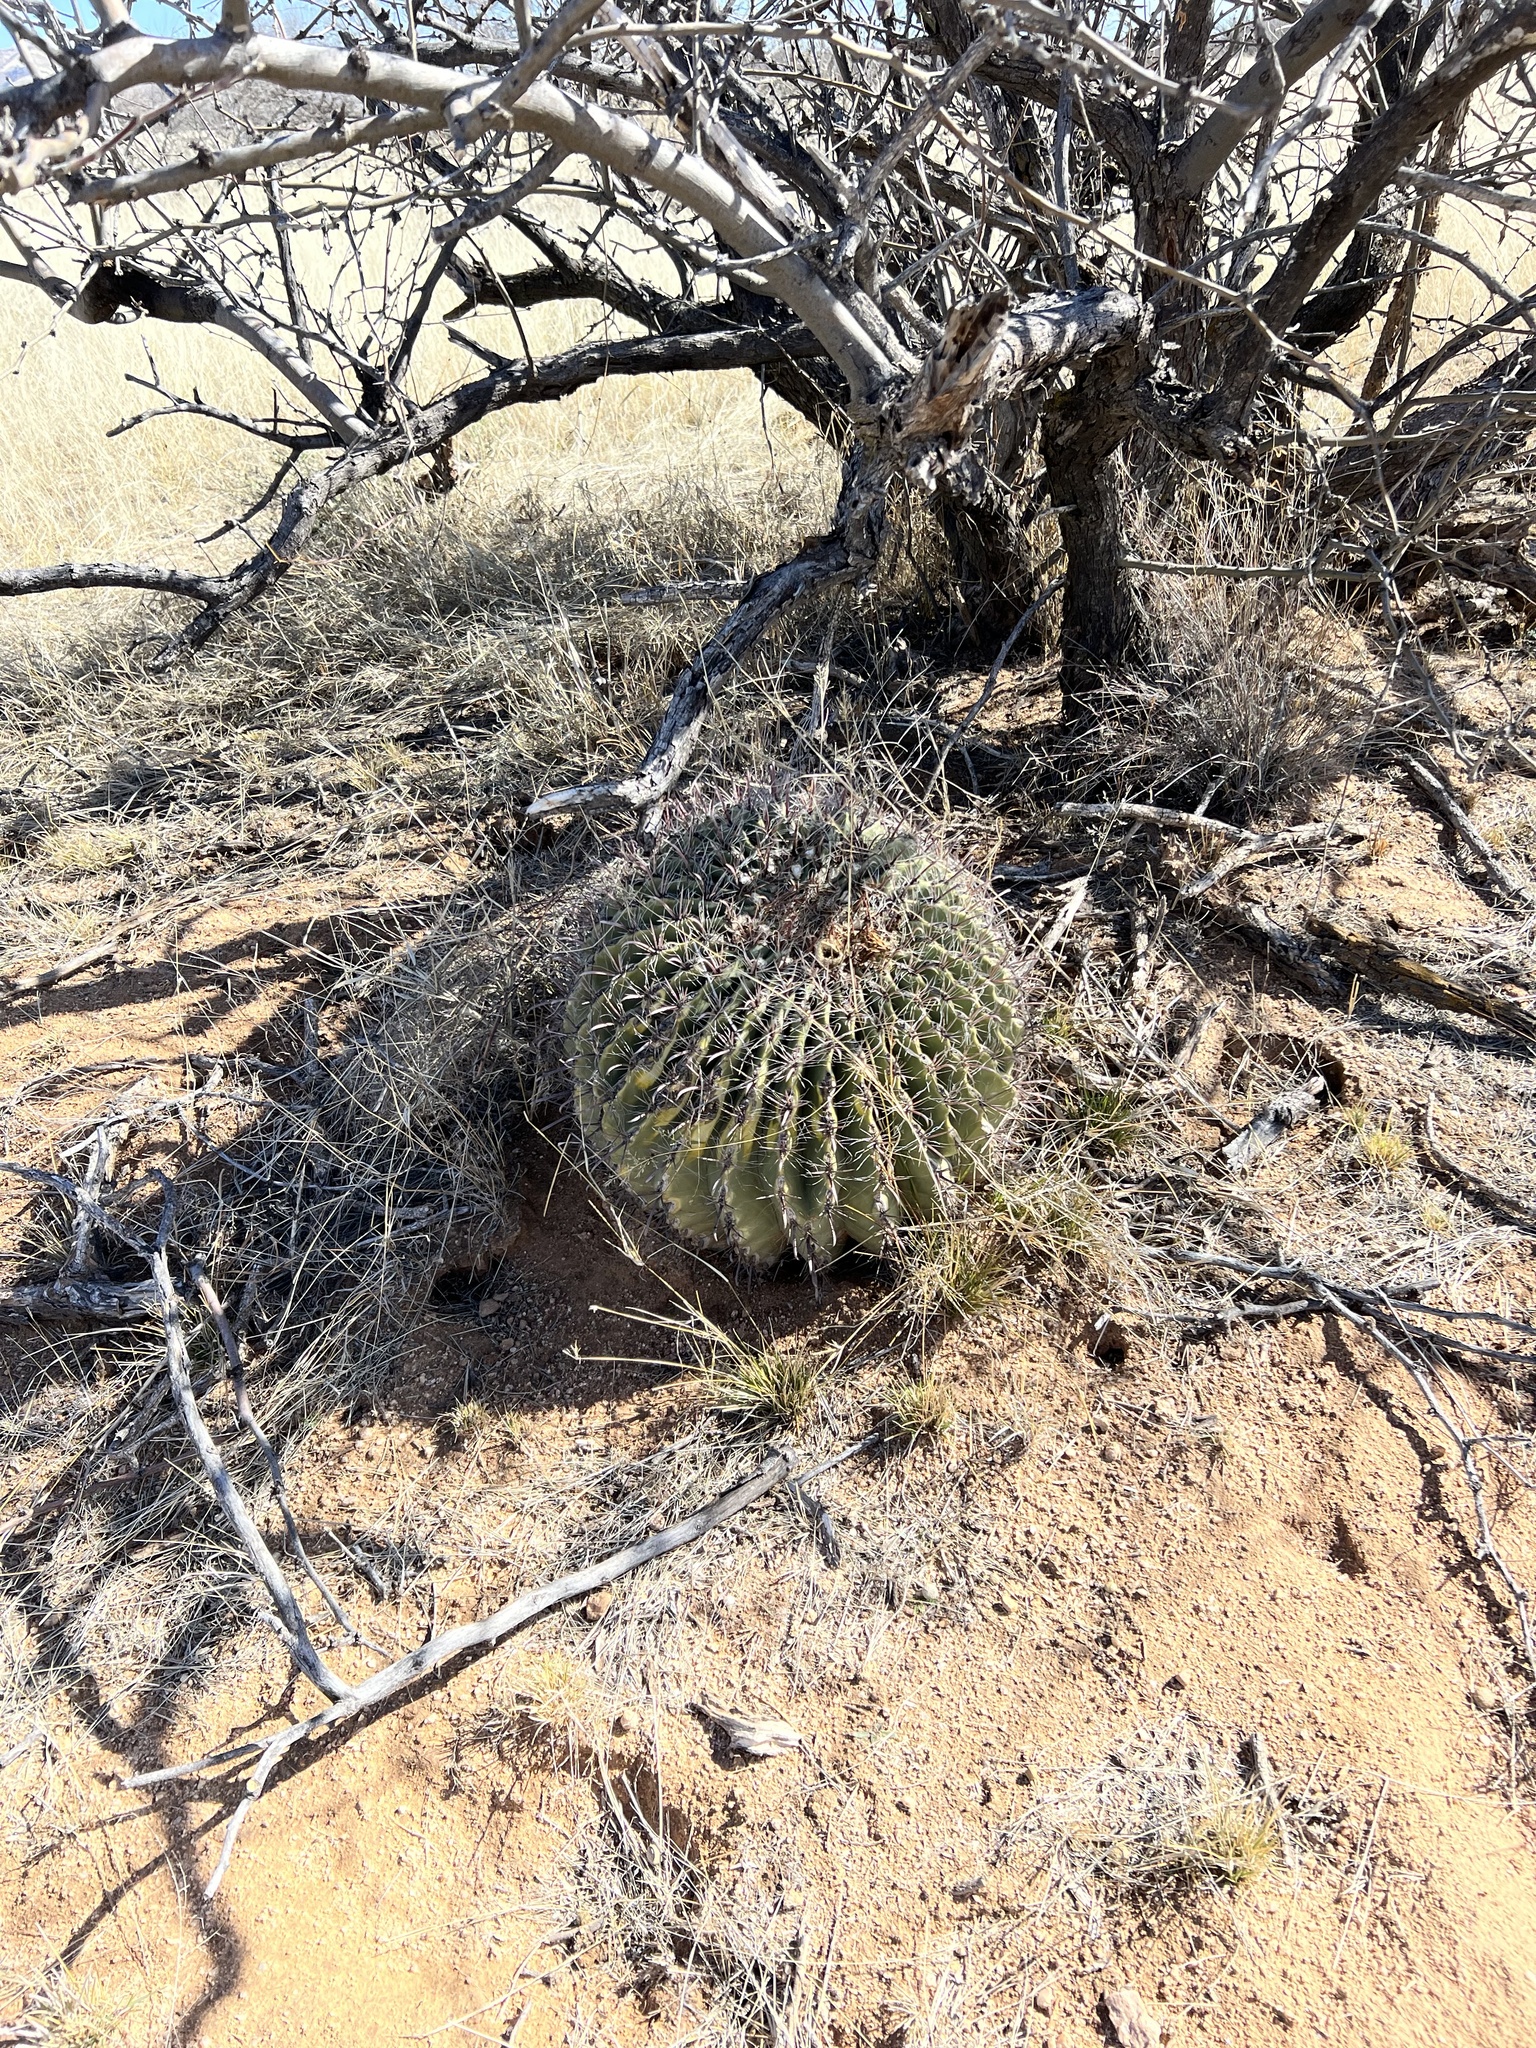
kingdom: Plantae
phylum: Tracheophyta
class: Magnoliopsida
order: Caryophyllales
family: Cactaceae
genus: Ferocactus
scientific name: Ferocactus wislizeni
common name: Candy barrel cactus
